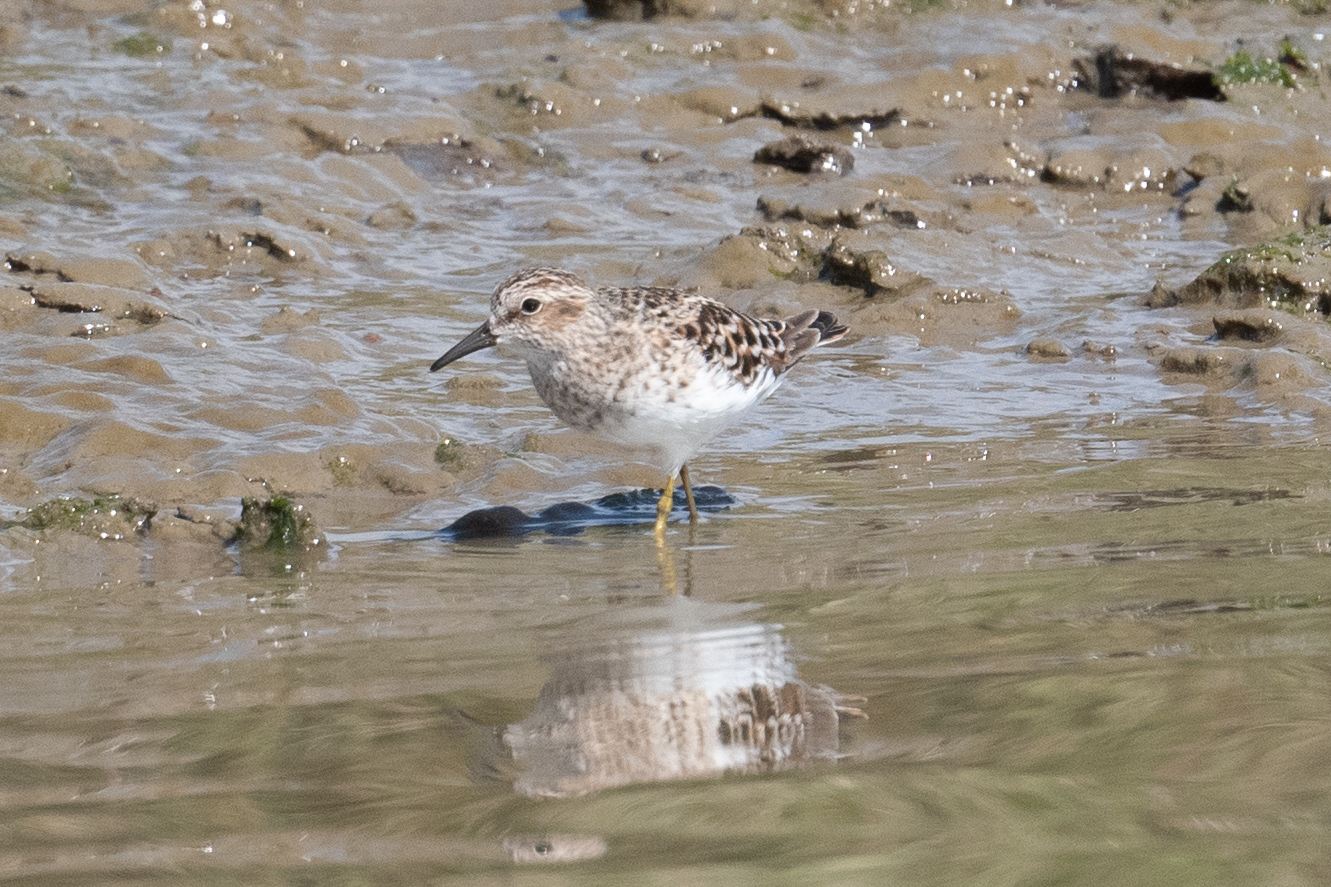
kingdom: Animalia
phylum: Chordata
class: Aves
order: Charadriiformes
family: Scolopacidae
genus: Calidris
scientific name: Calidris minutilla
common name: Least sandpiper
